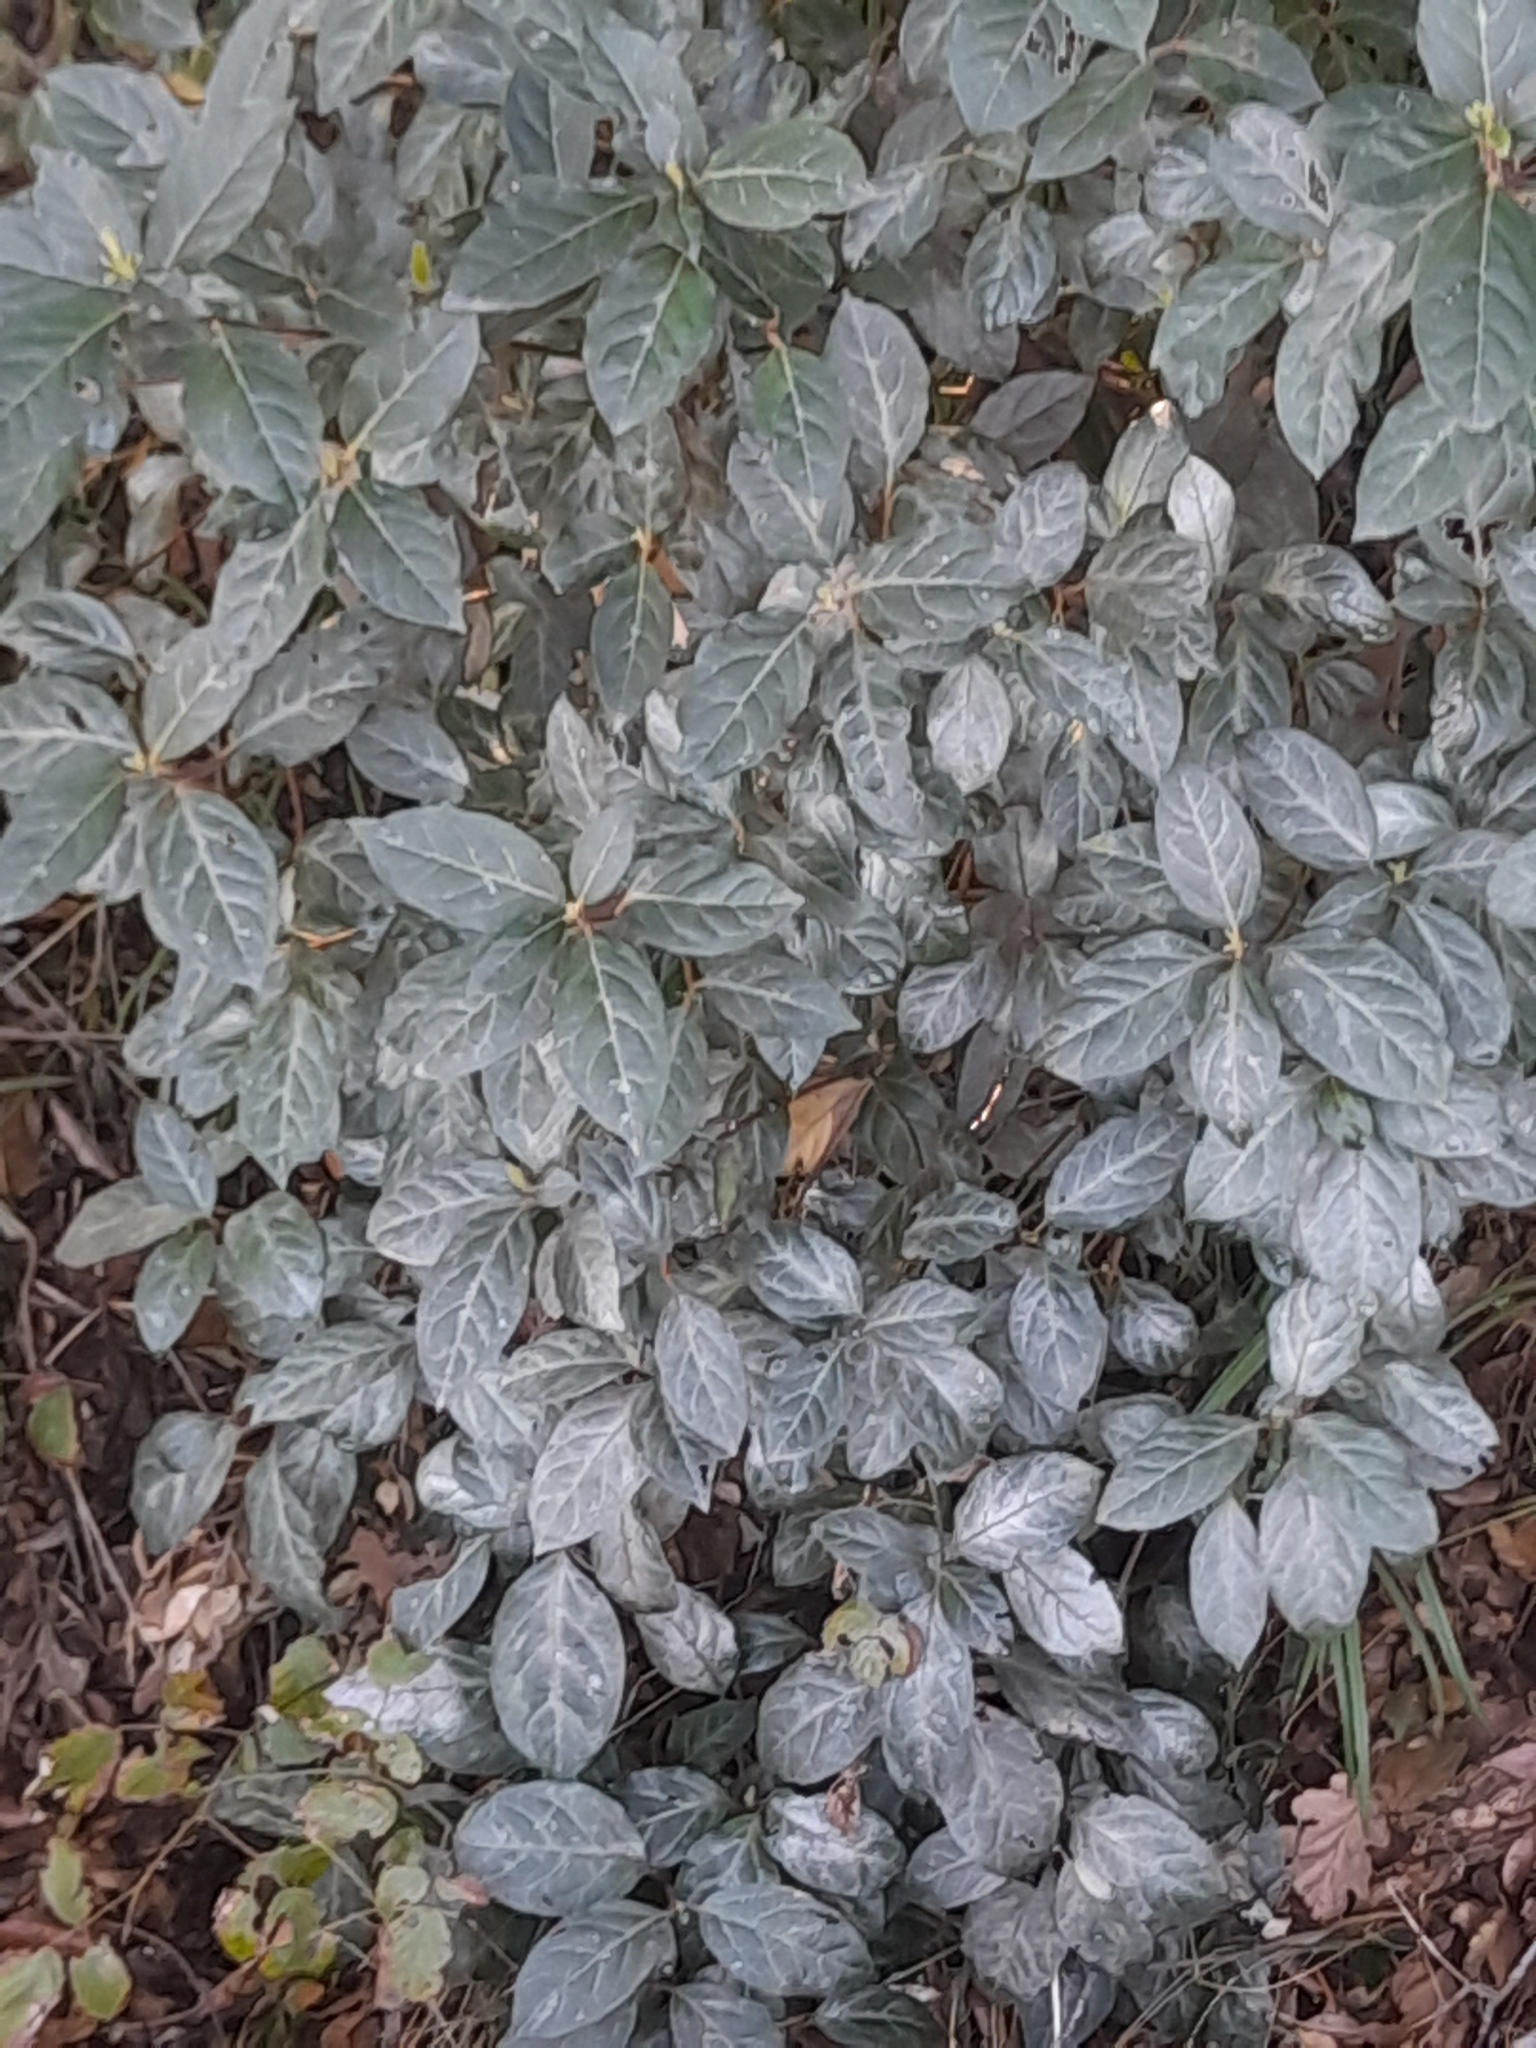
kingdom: Plantae
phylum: Tracheophyta
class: Magnoliopsida
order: Dipsacales
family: Viburnaceae
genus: Viburnum
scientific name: Viburnum tinus
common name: Laurustinus
